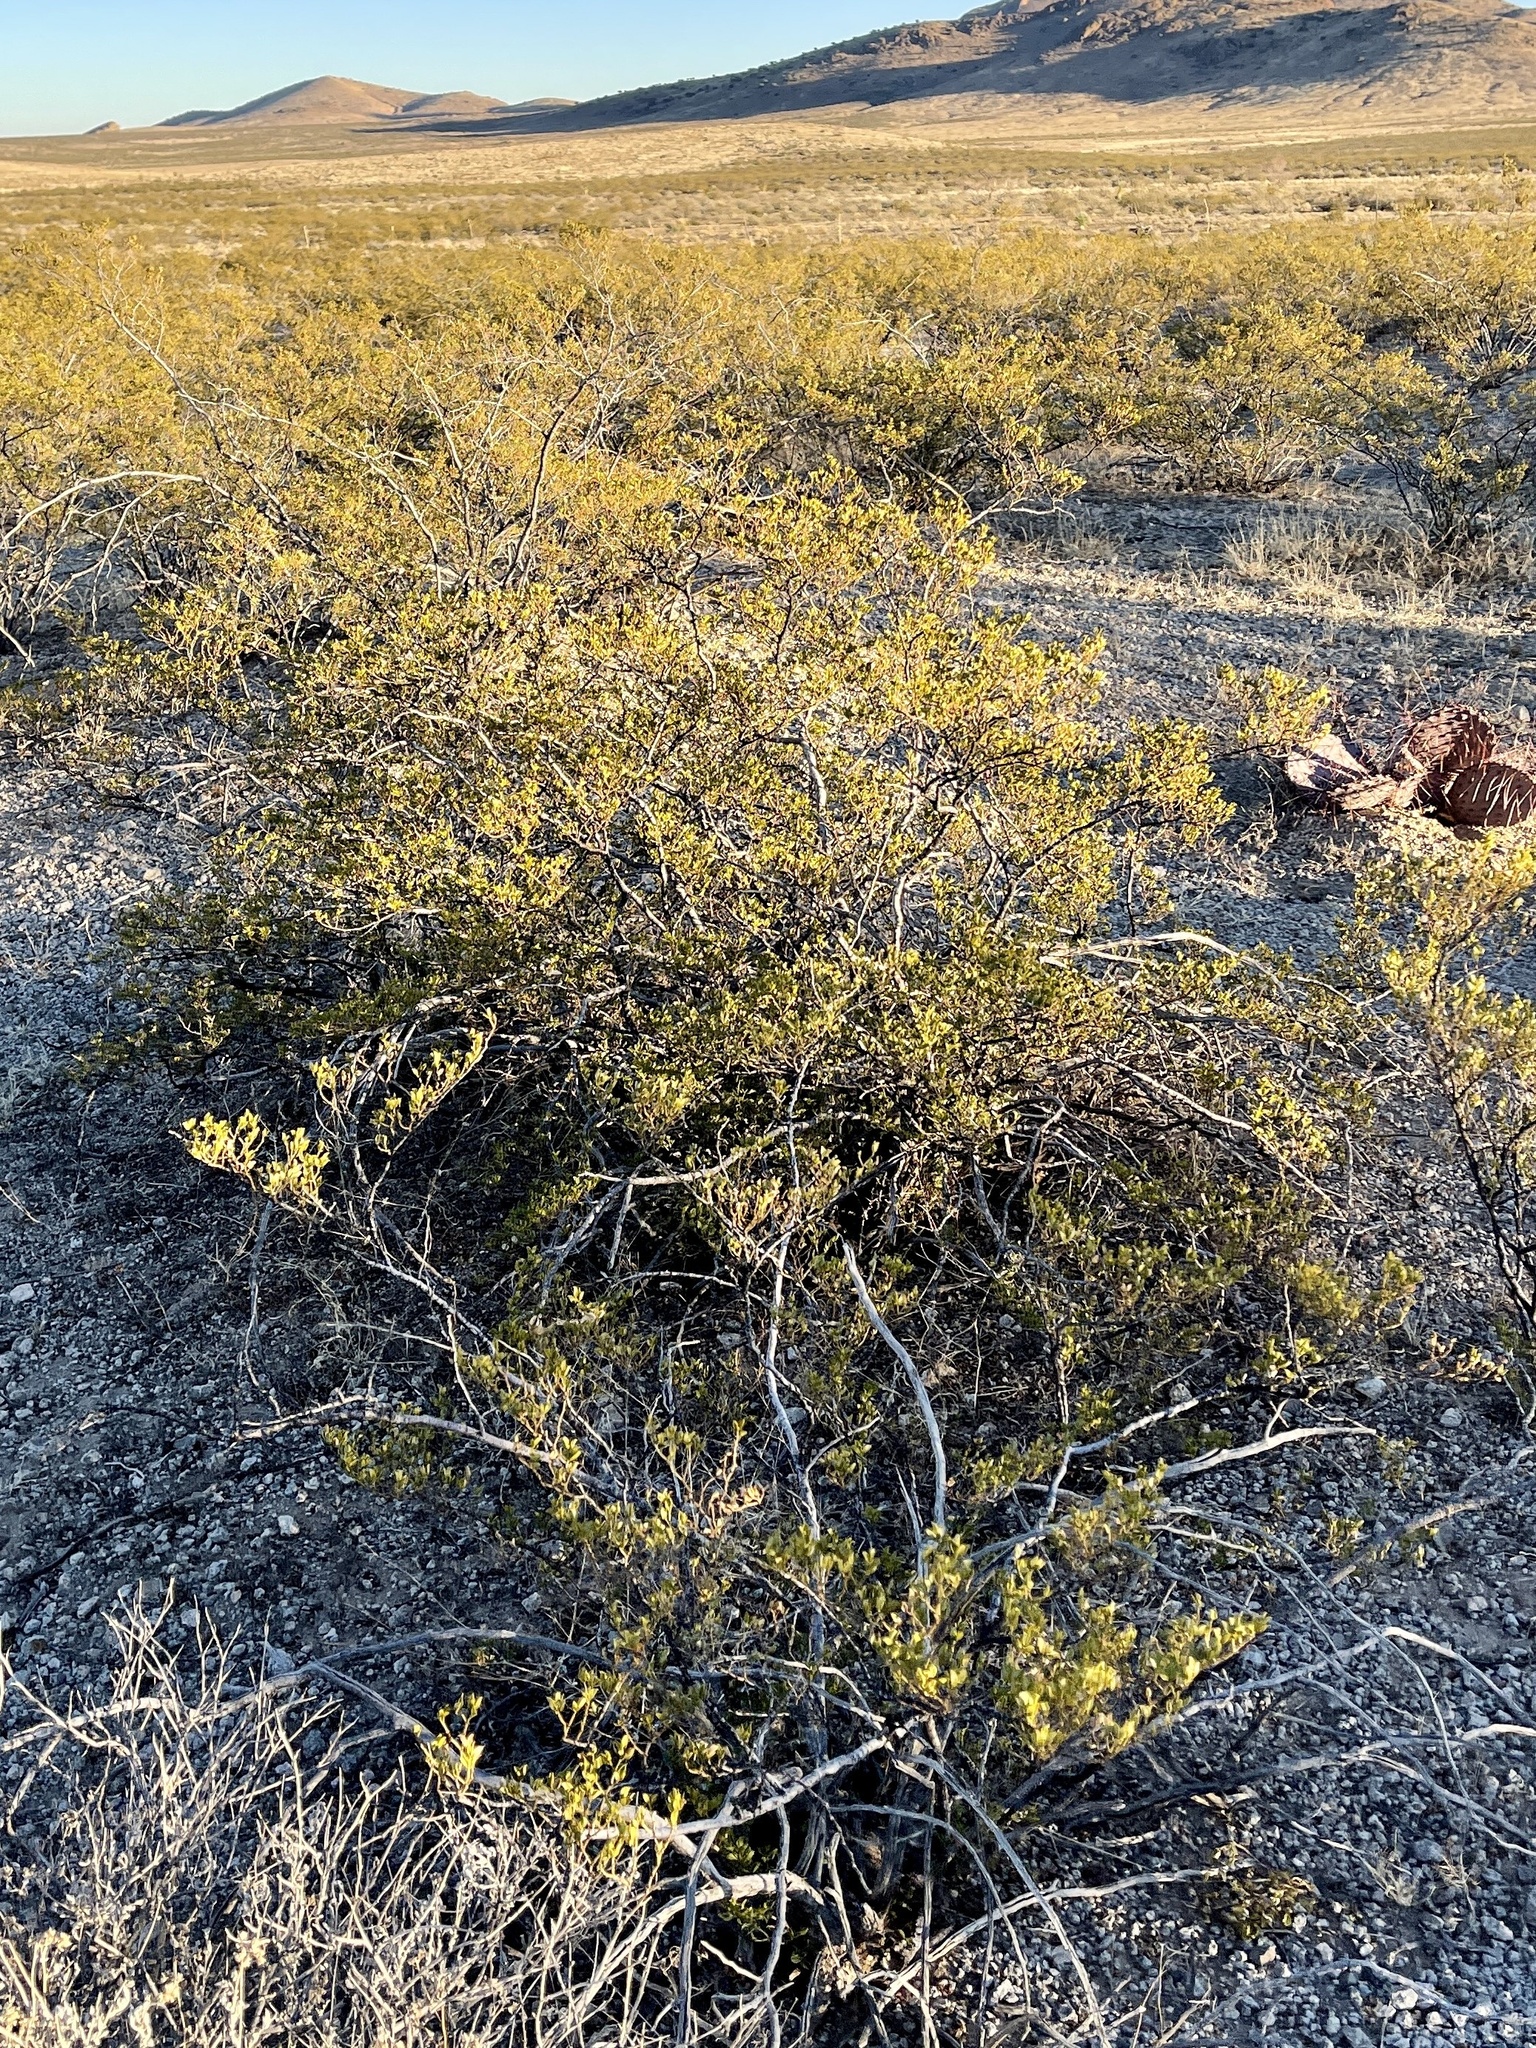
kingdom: Plantae
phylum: Tracheophyta
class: Magnoliopsida
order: Zygophyllales
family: Zygophyllaceae
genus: Larrea
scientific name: Larrea tridentata
